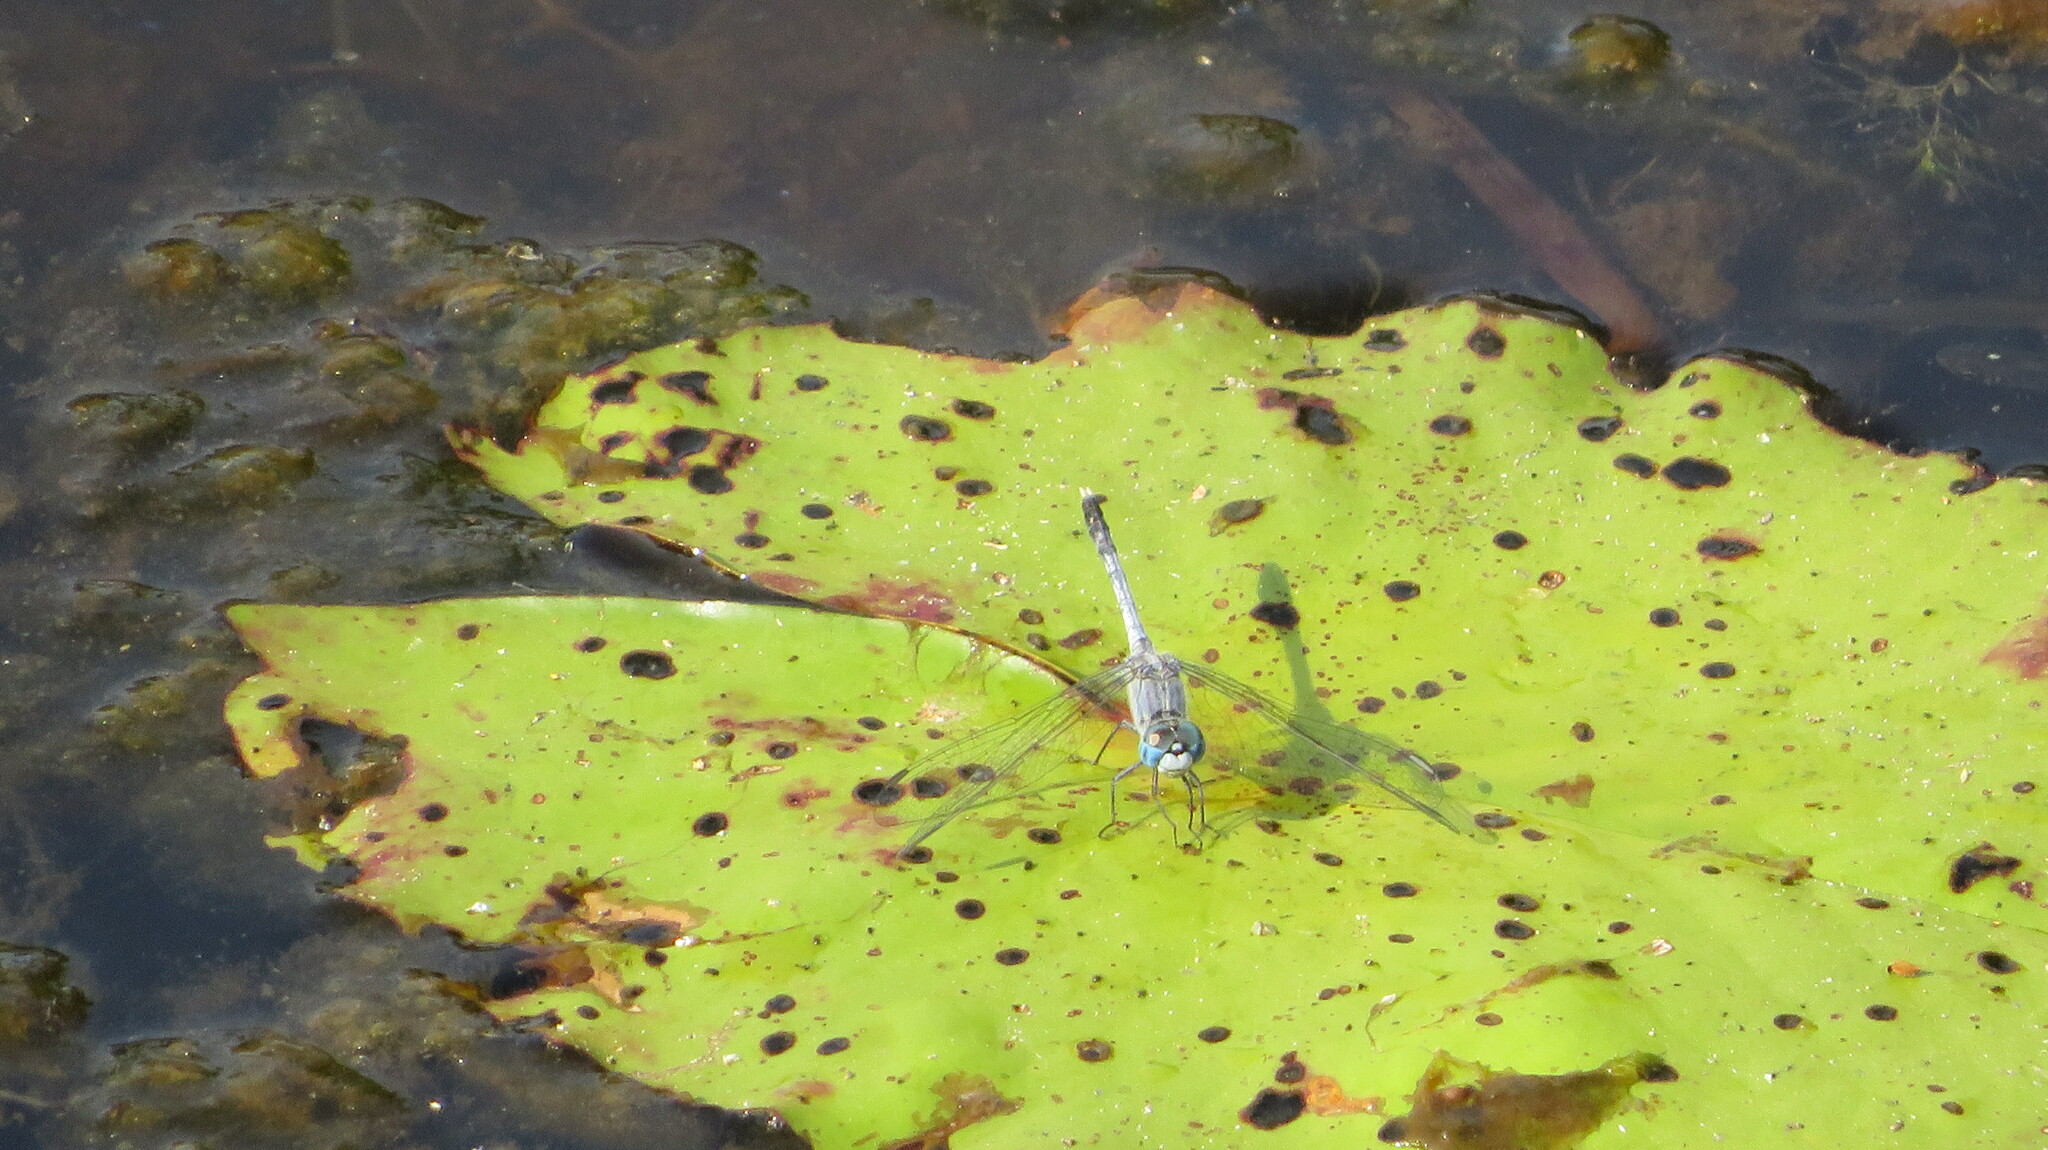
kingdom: Animalia
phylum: Arthropoda
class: Insecta
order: Odonata
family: Libellulidae
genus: Diplacodes
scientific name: Diplacodes trivialis
